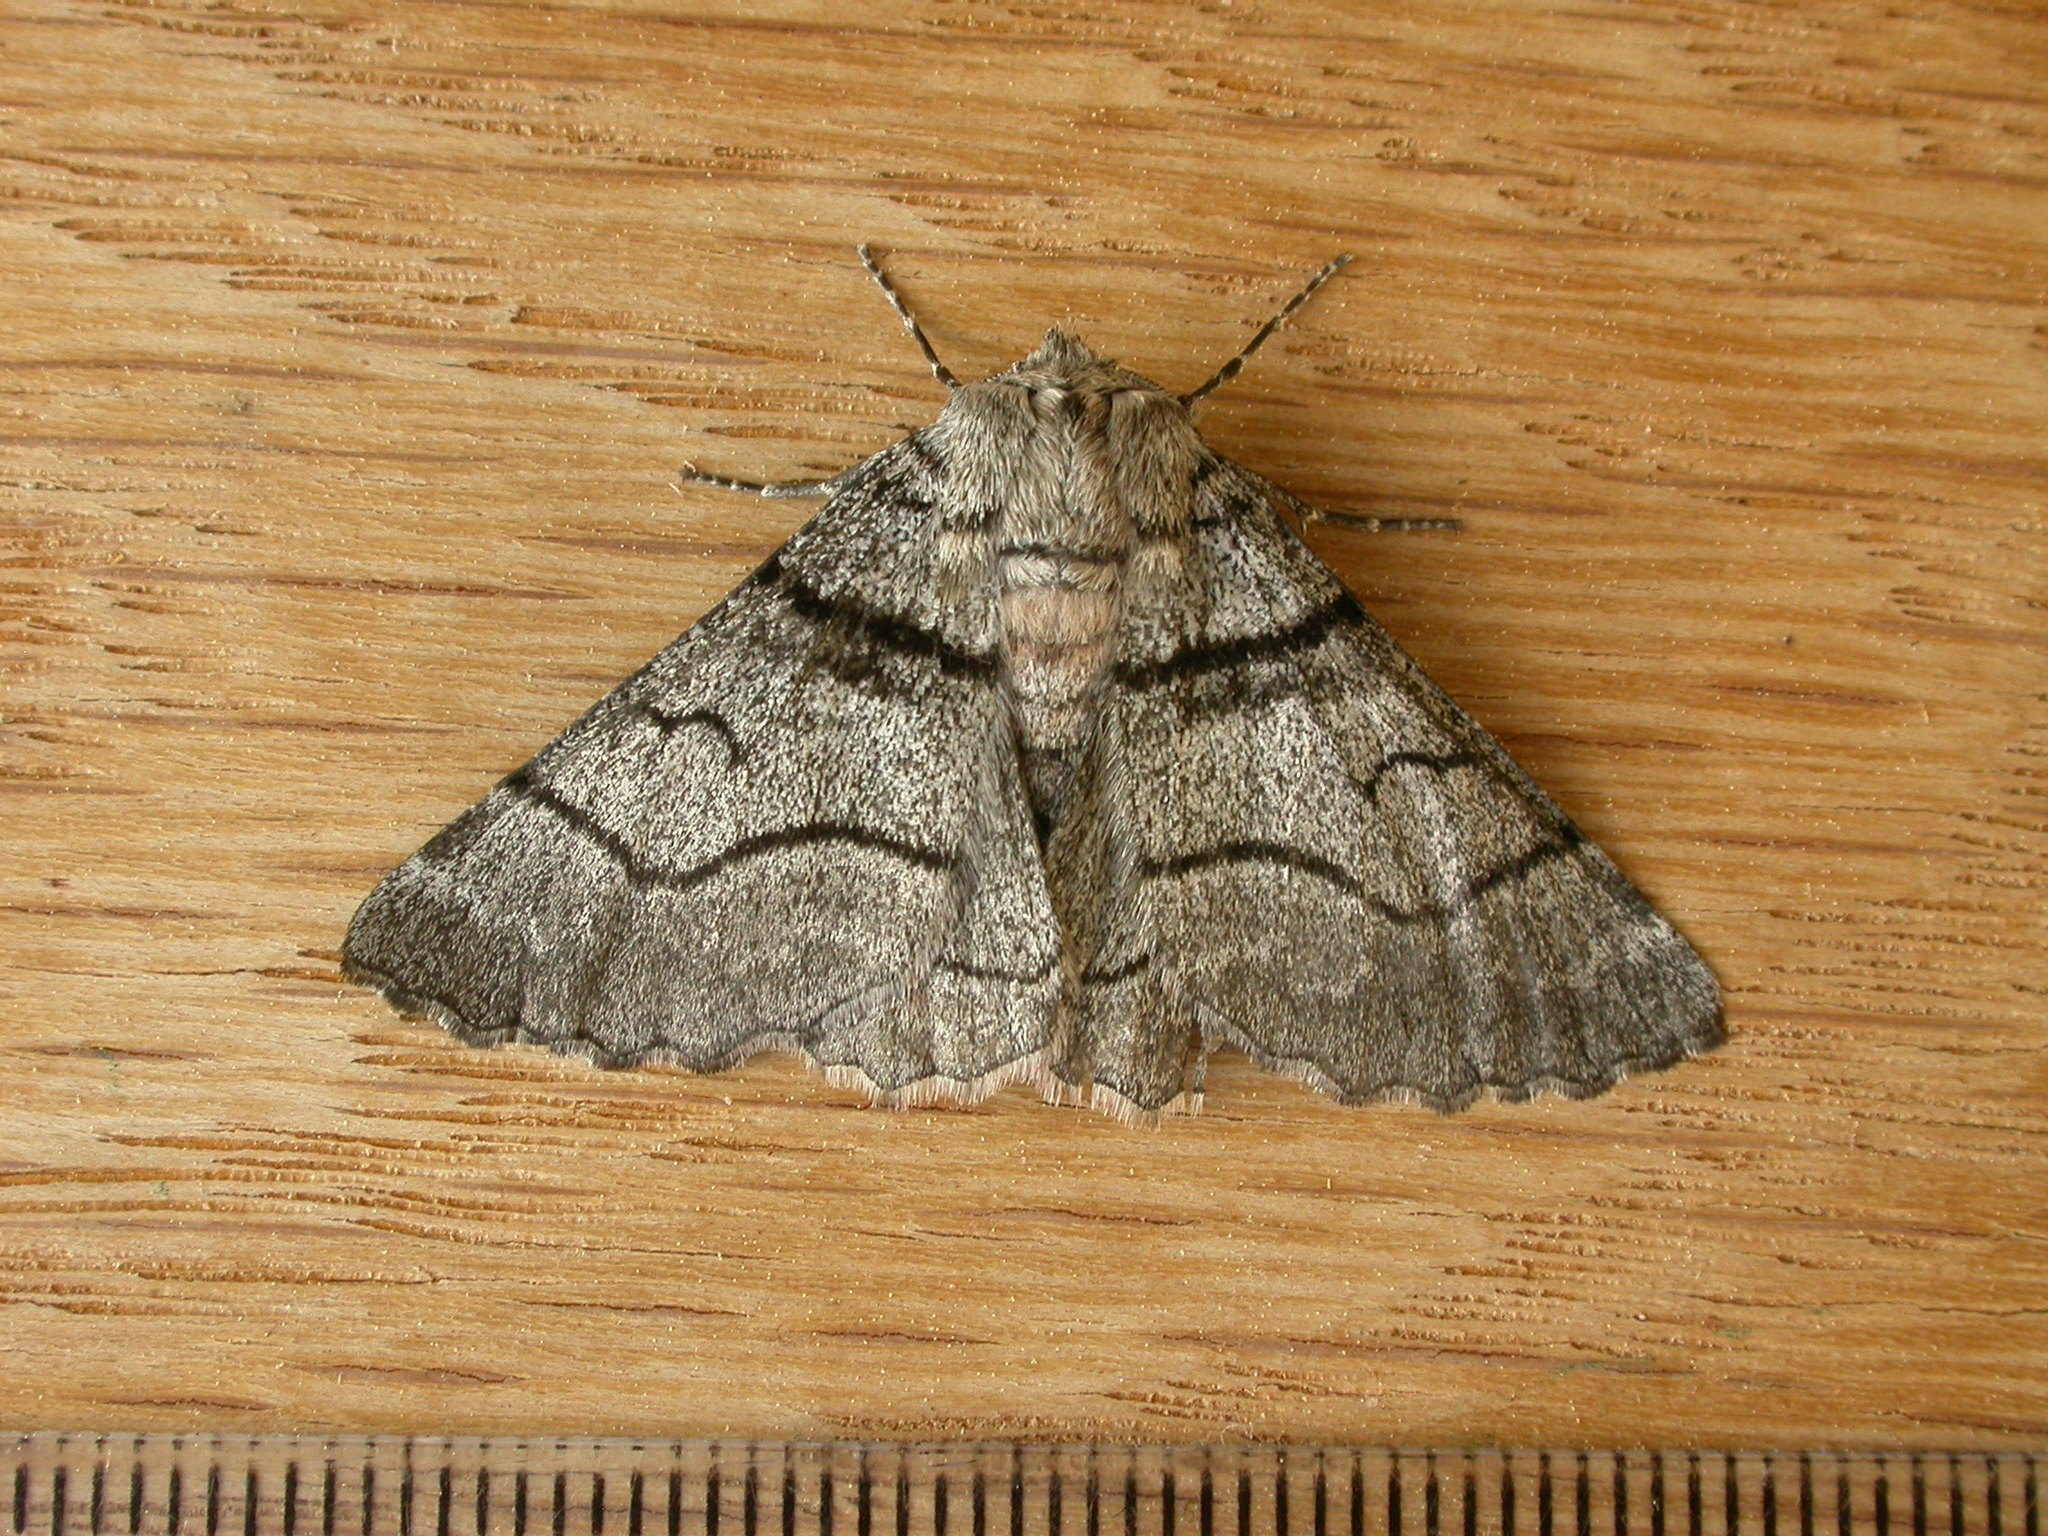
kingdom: Animalia
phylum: Arthropoda
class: Insecta
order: Lepidoptera
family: Geometridae
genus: Hypobapta
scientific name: Hypobapta diffundens
